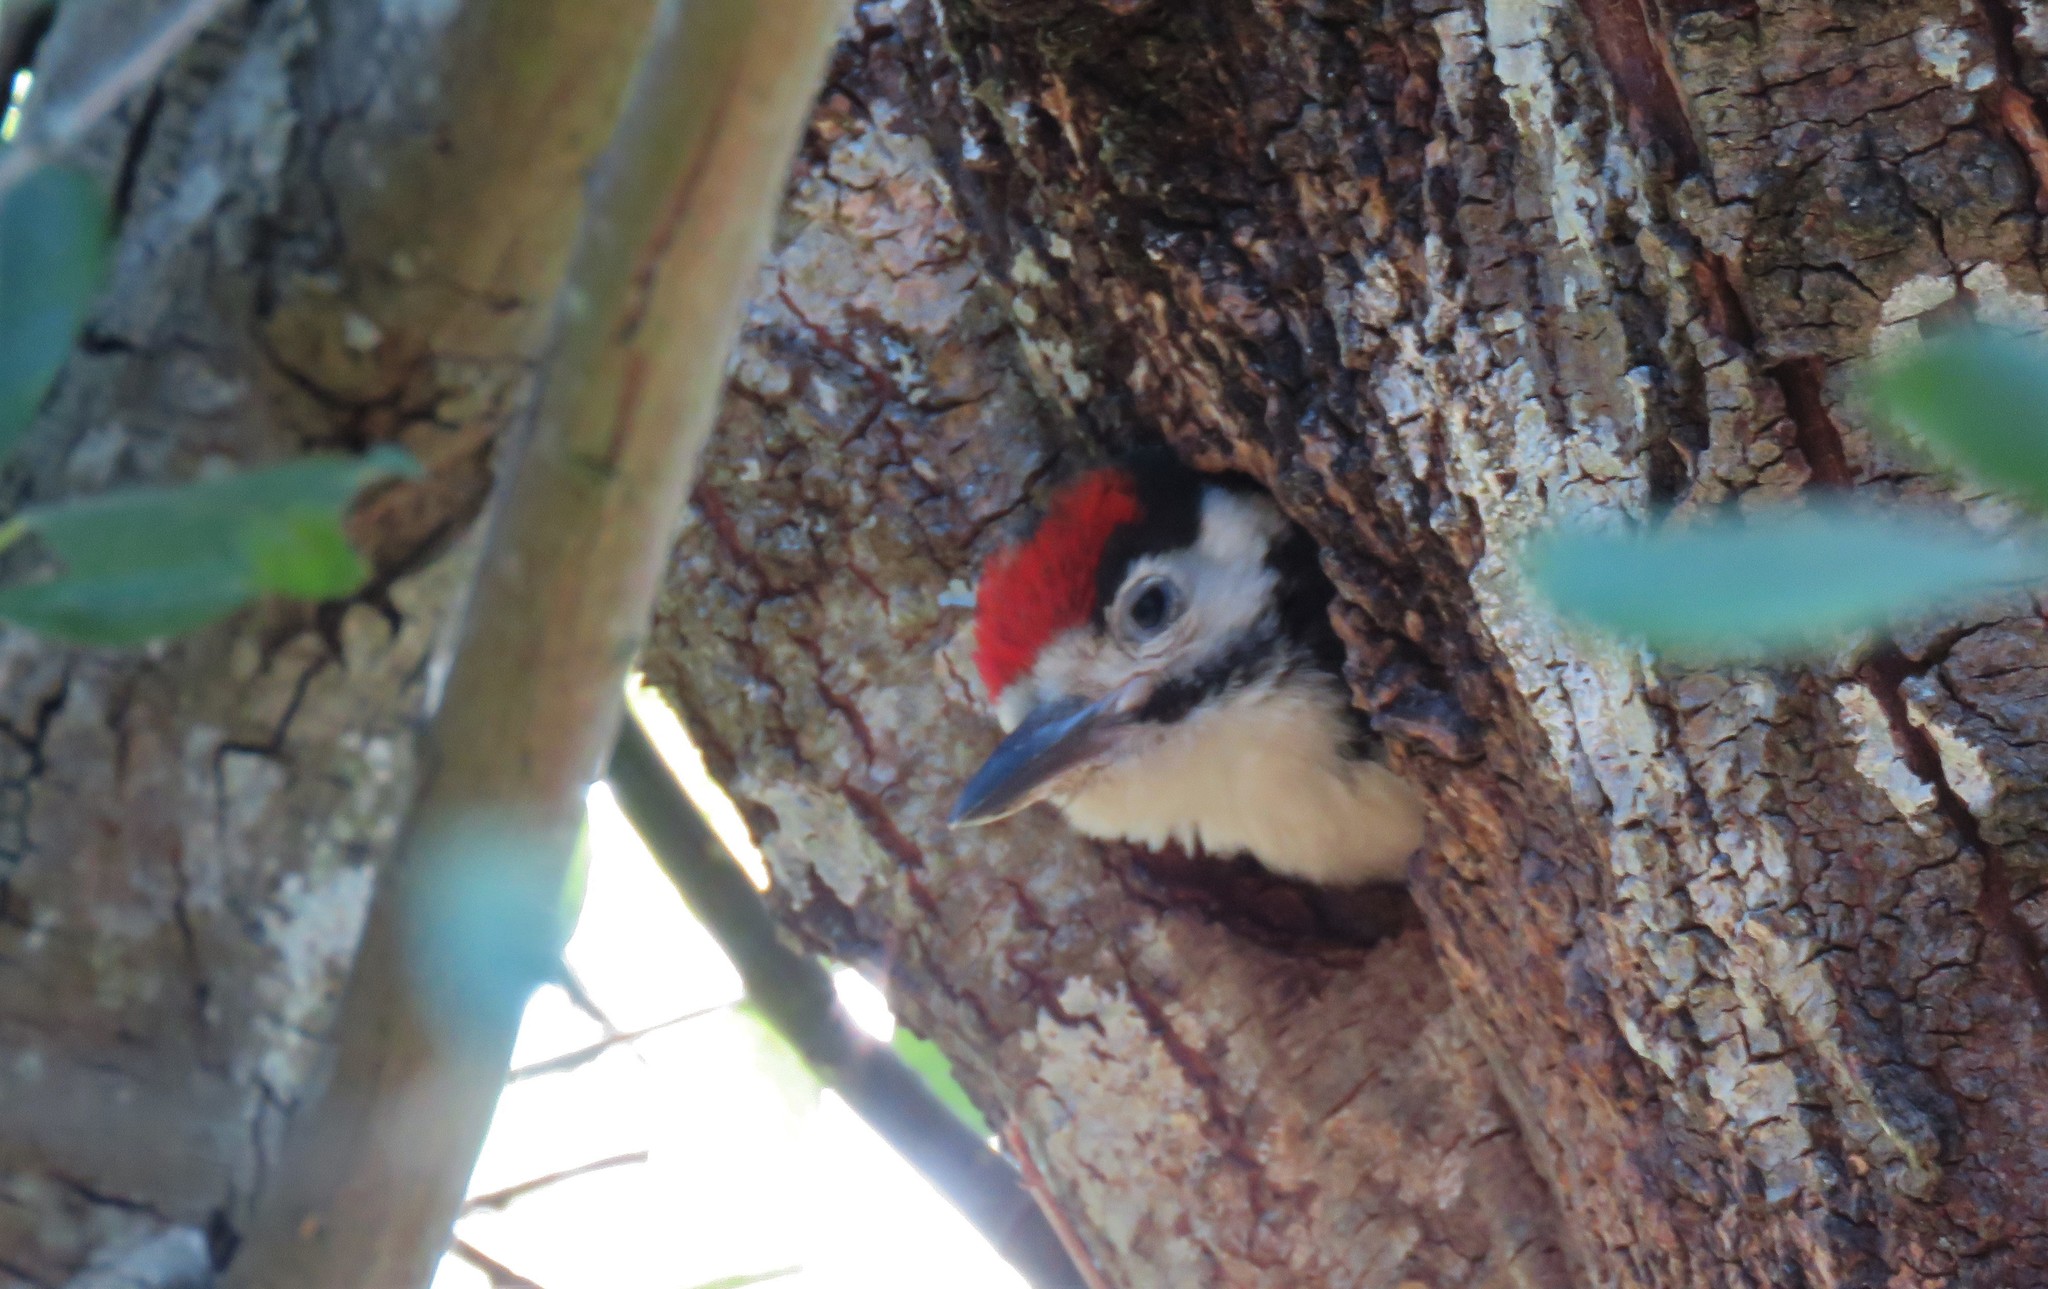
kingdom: Animalia
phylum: Chordata
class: Aves
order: Piciformes
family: Picidae
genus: Dendrocopos
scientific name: Dendrocopos major
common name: Great spotted woodpecker
